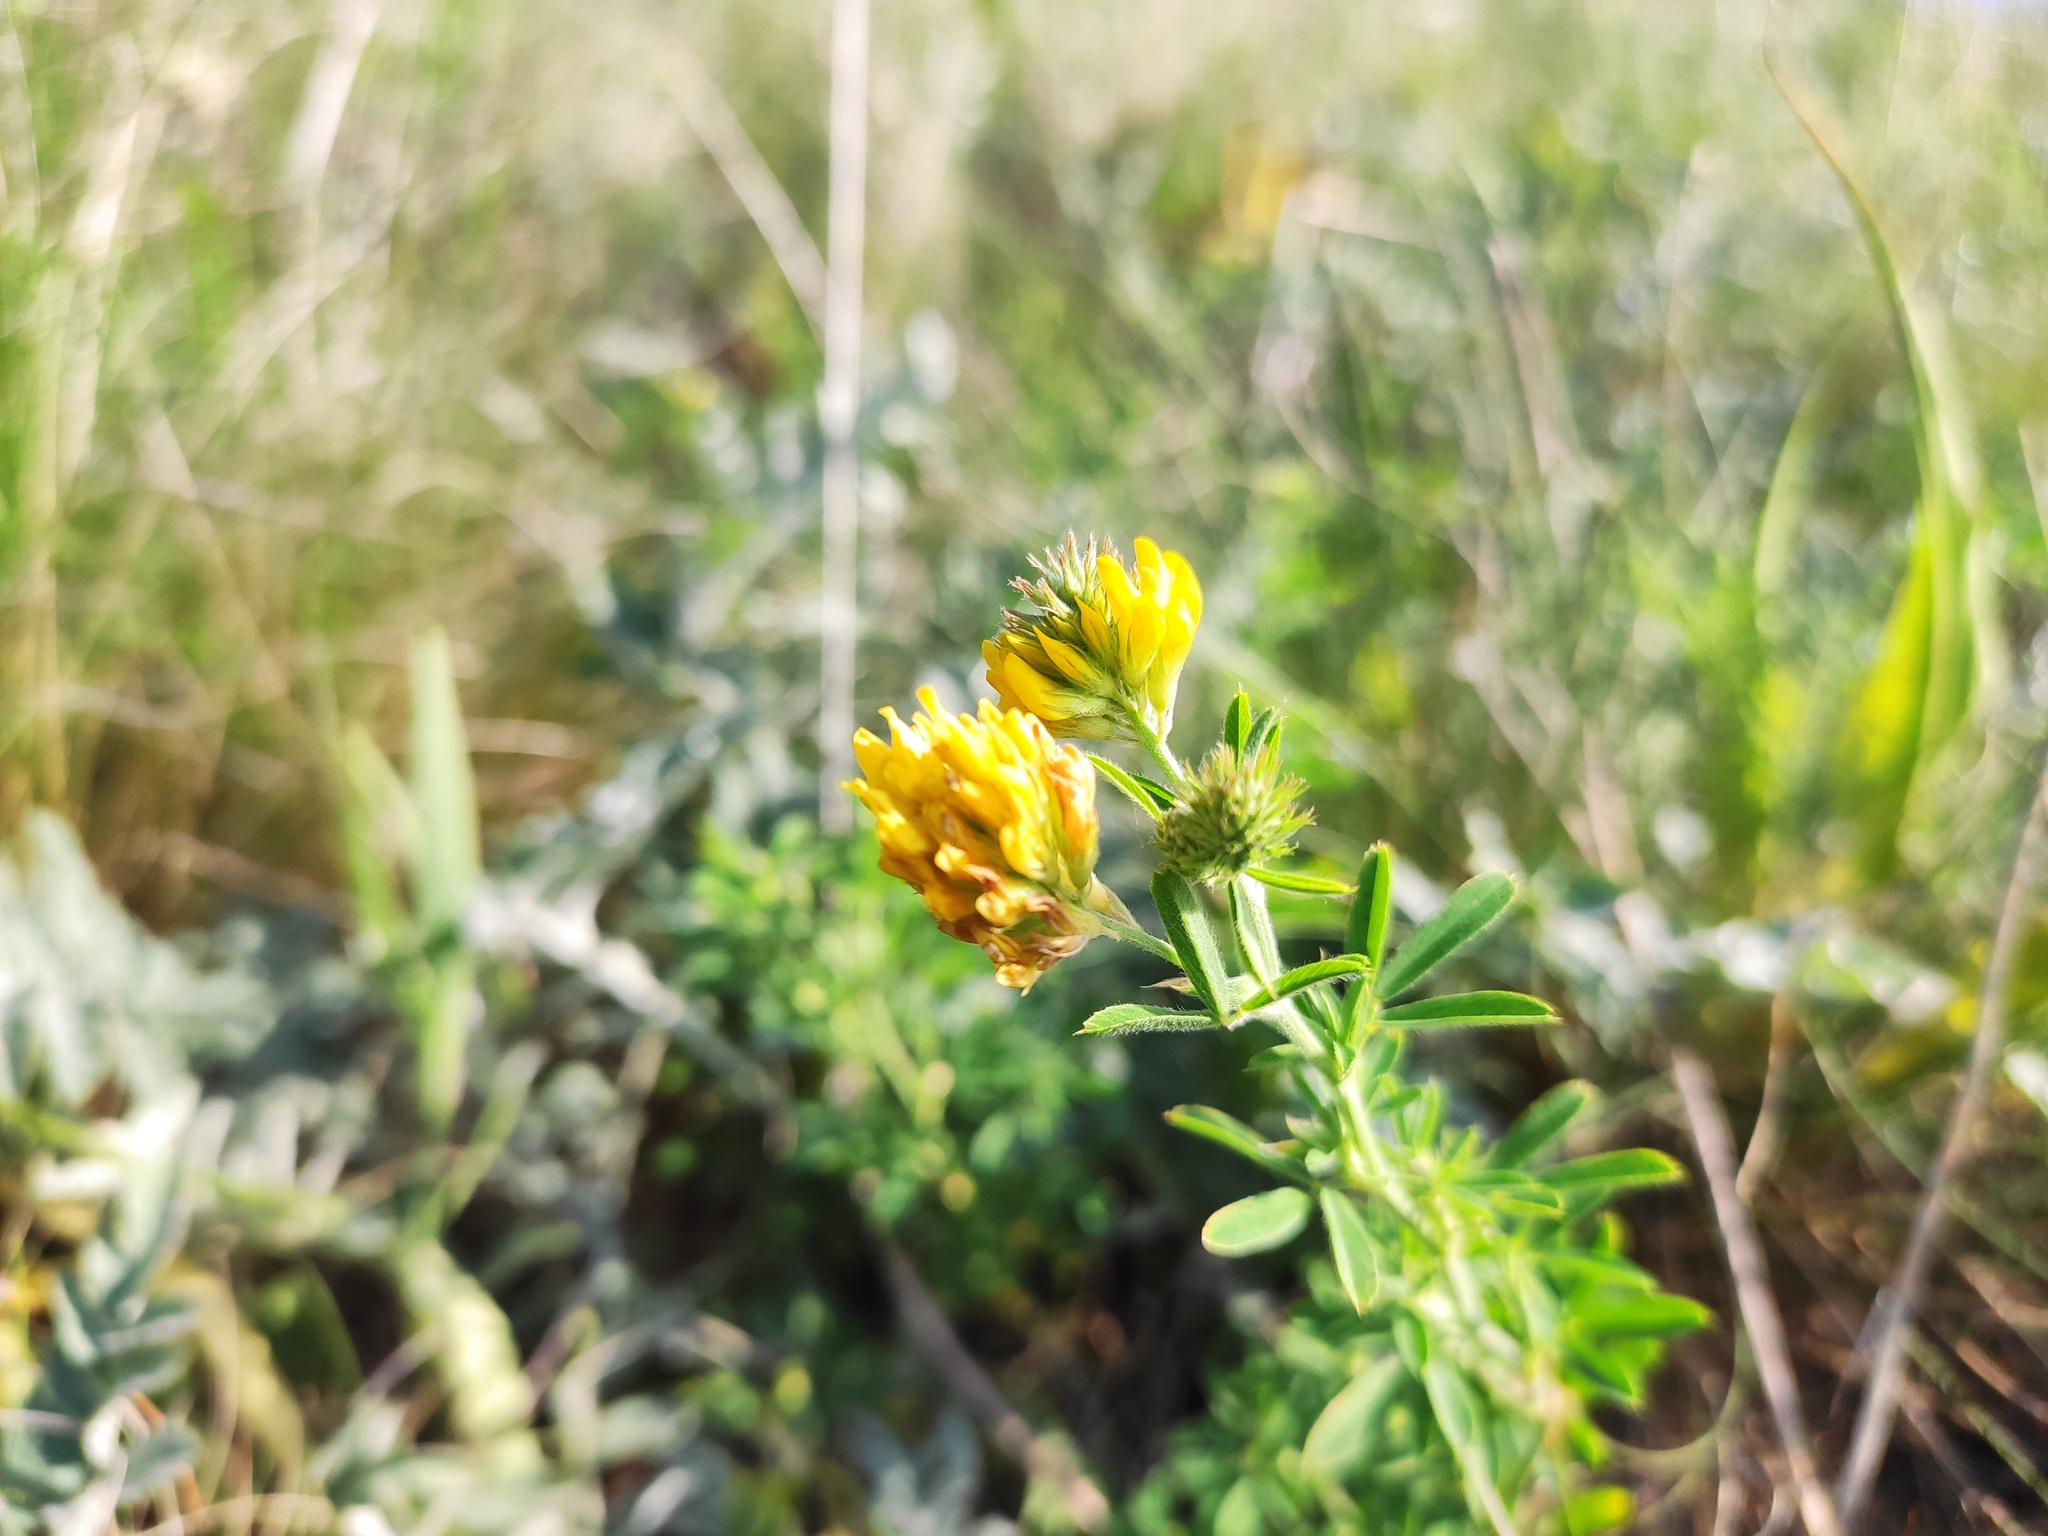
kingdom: Plantae
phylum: Tracheophyta
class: Magnoliopsida
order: Fabales
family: Fabaceae
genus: Medicago
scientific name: Medicago falcata
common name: Sickle medick
